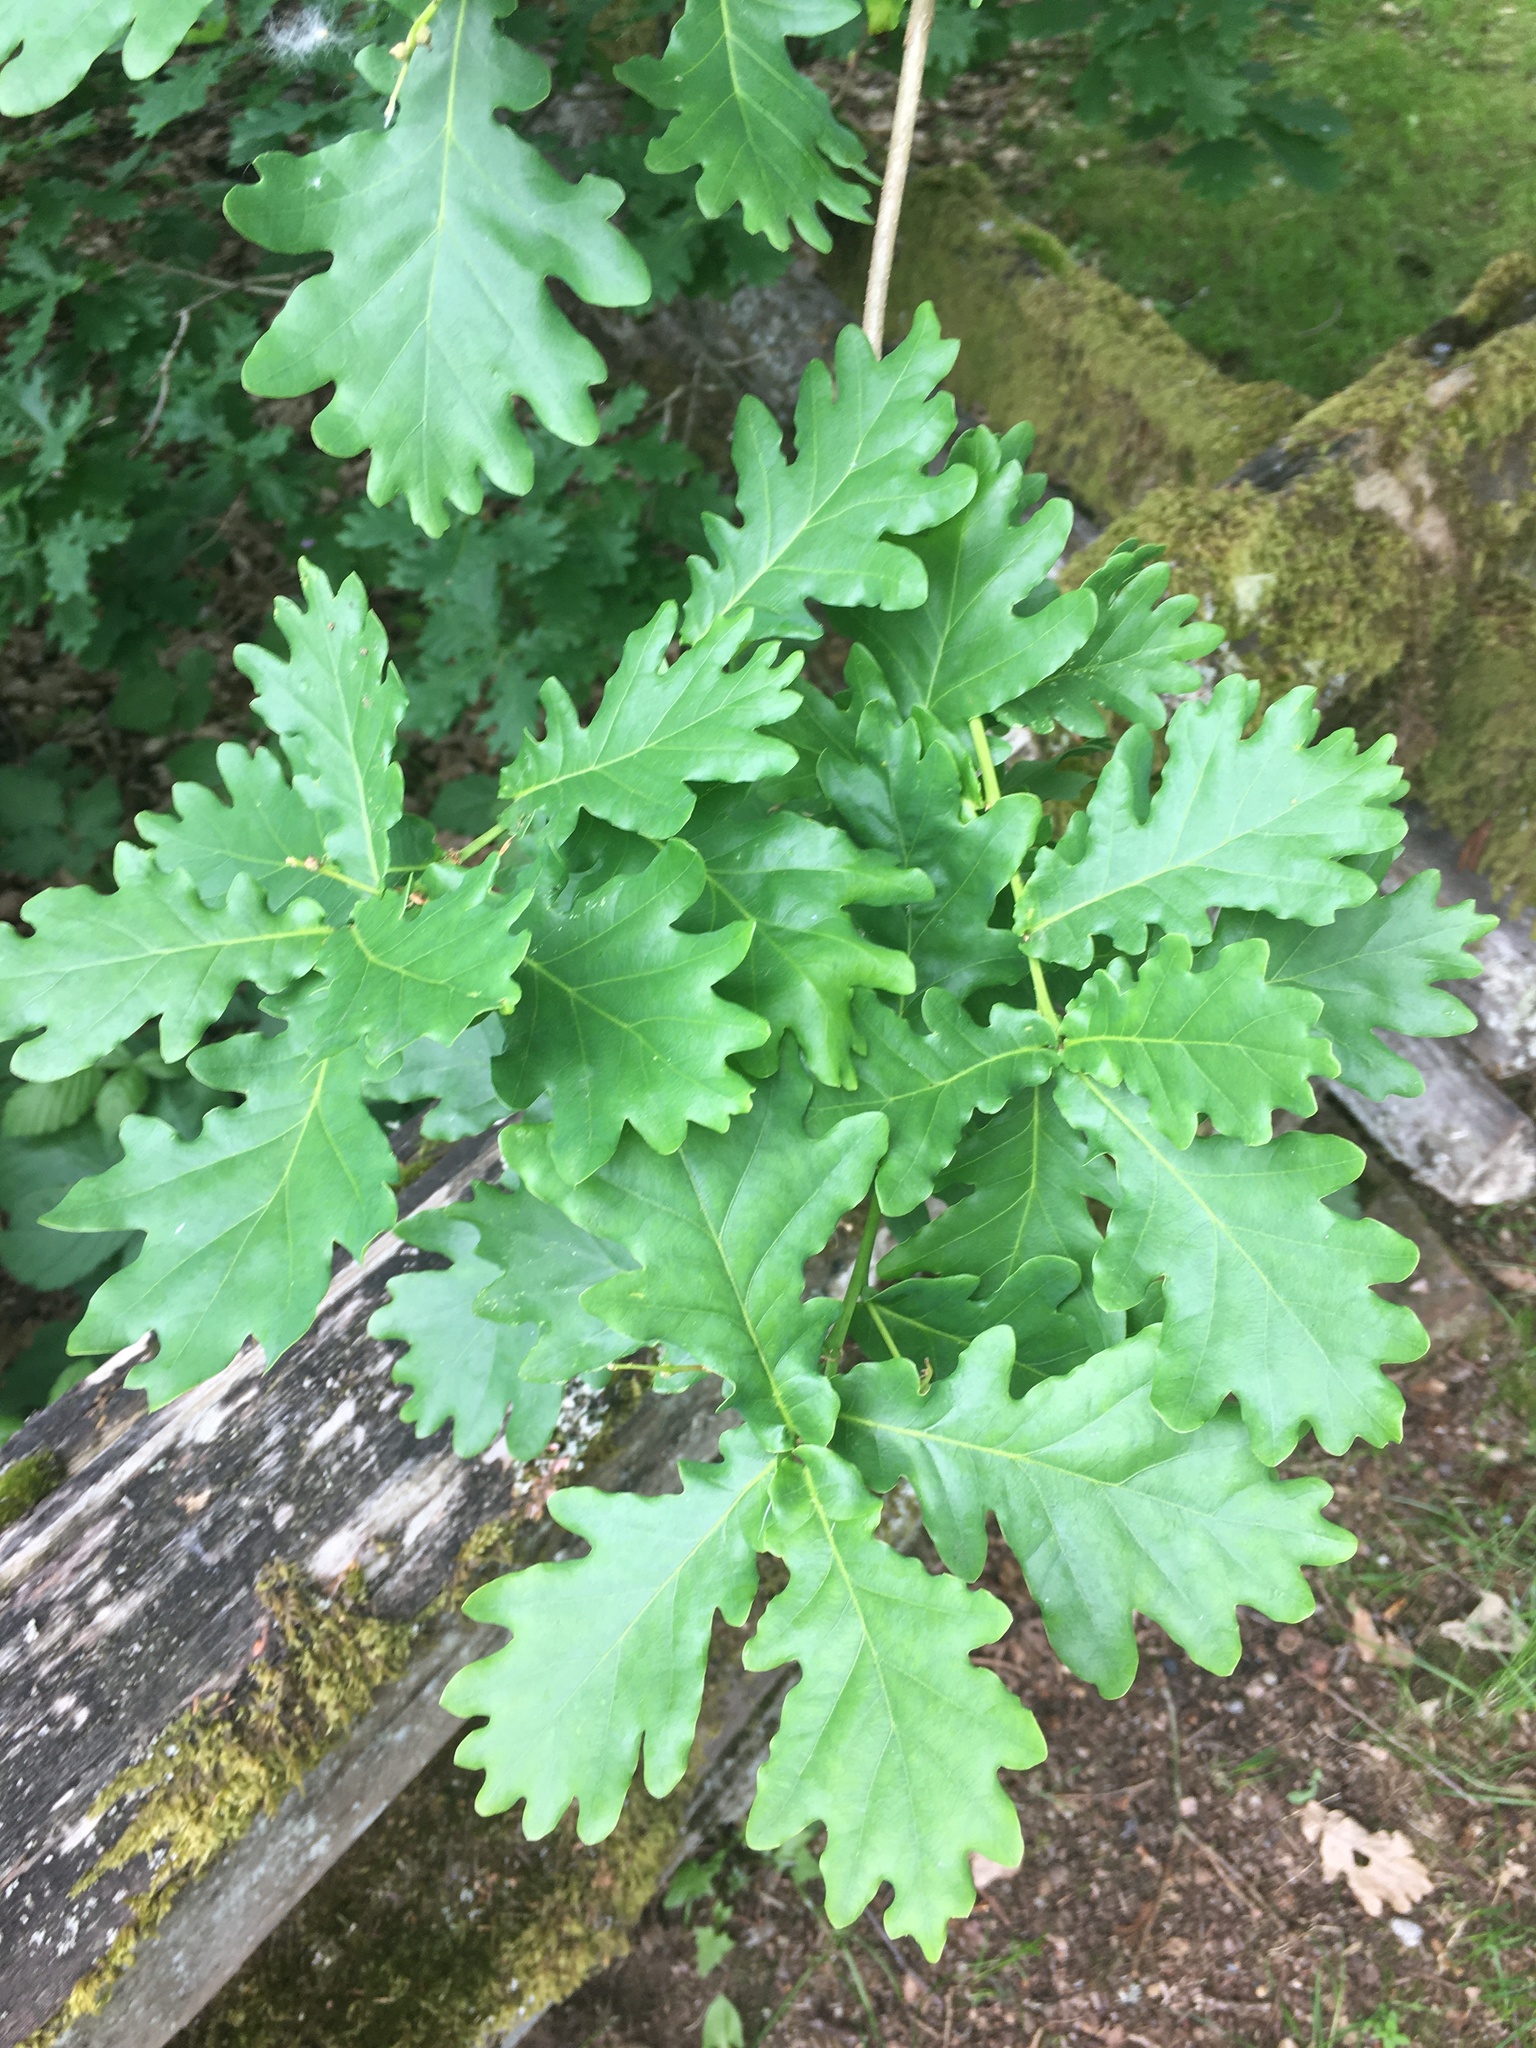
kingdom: Plantae
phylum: Tracheophyta
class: Magnoliopsida
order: Fagales
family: Fagaceae
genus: Quercus
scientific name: Quercus robur
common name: Pedunculate oak
